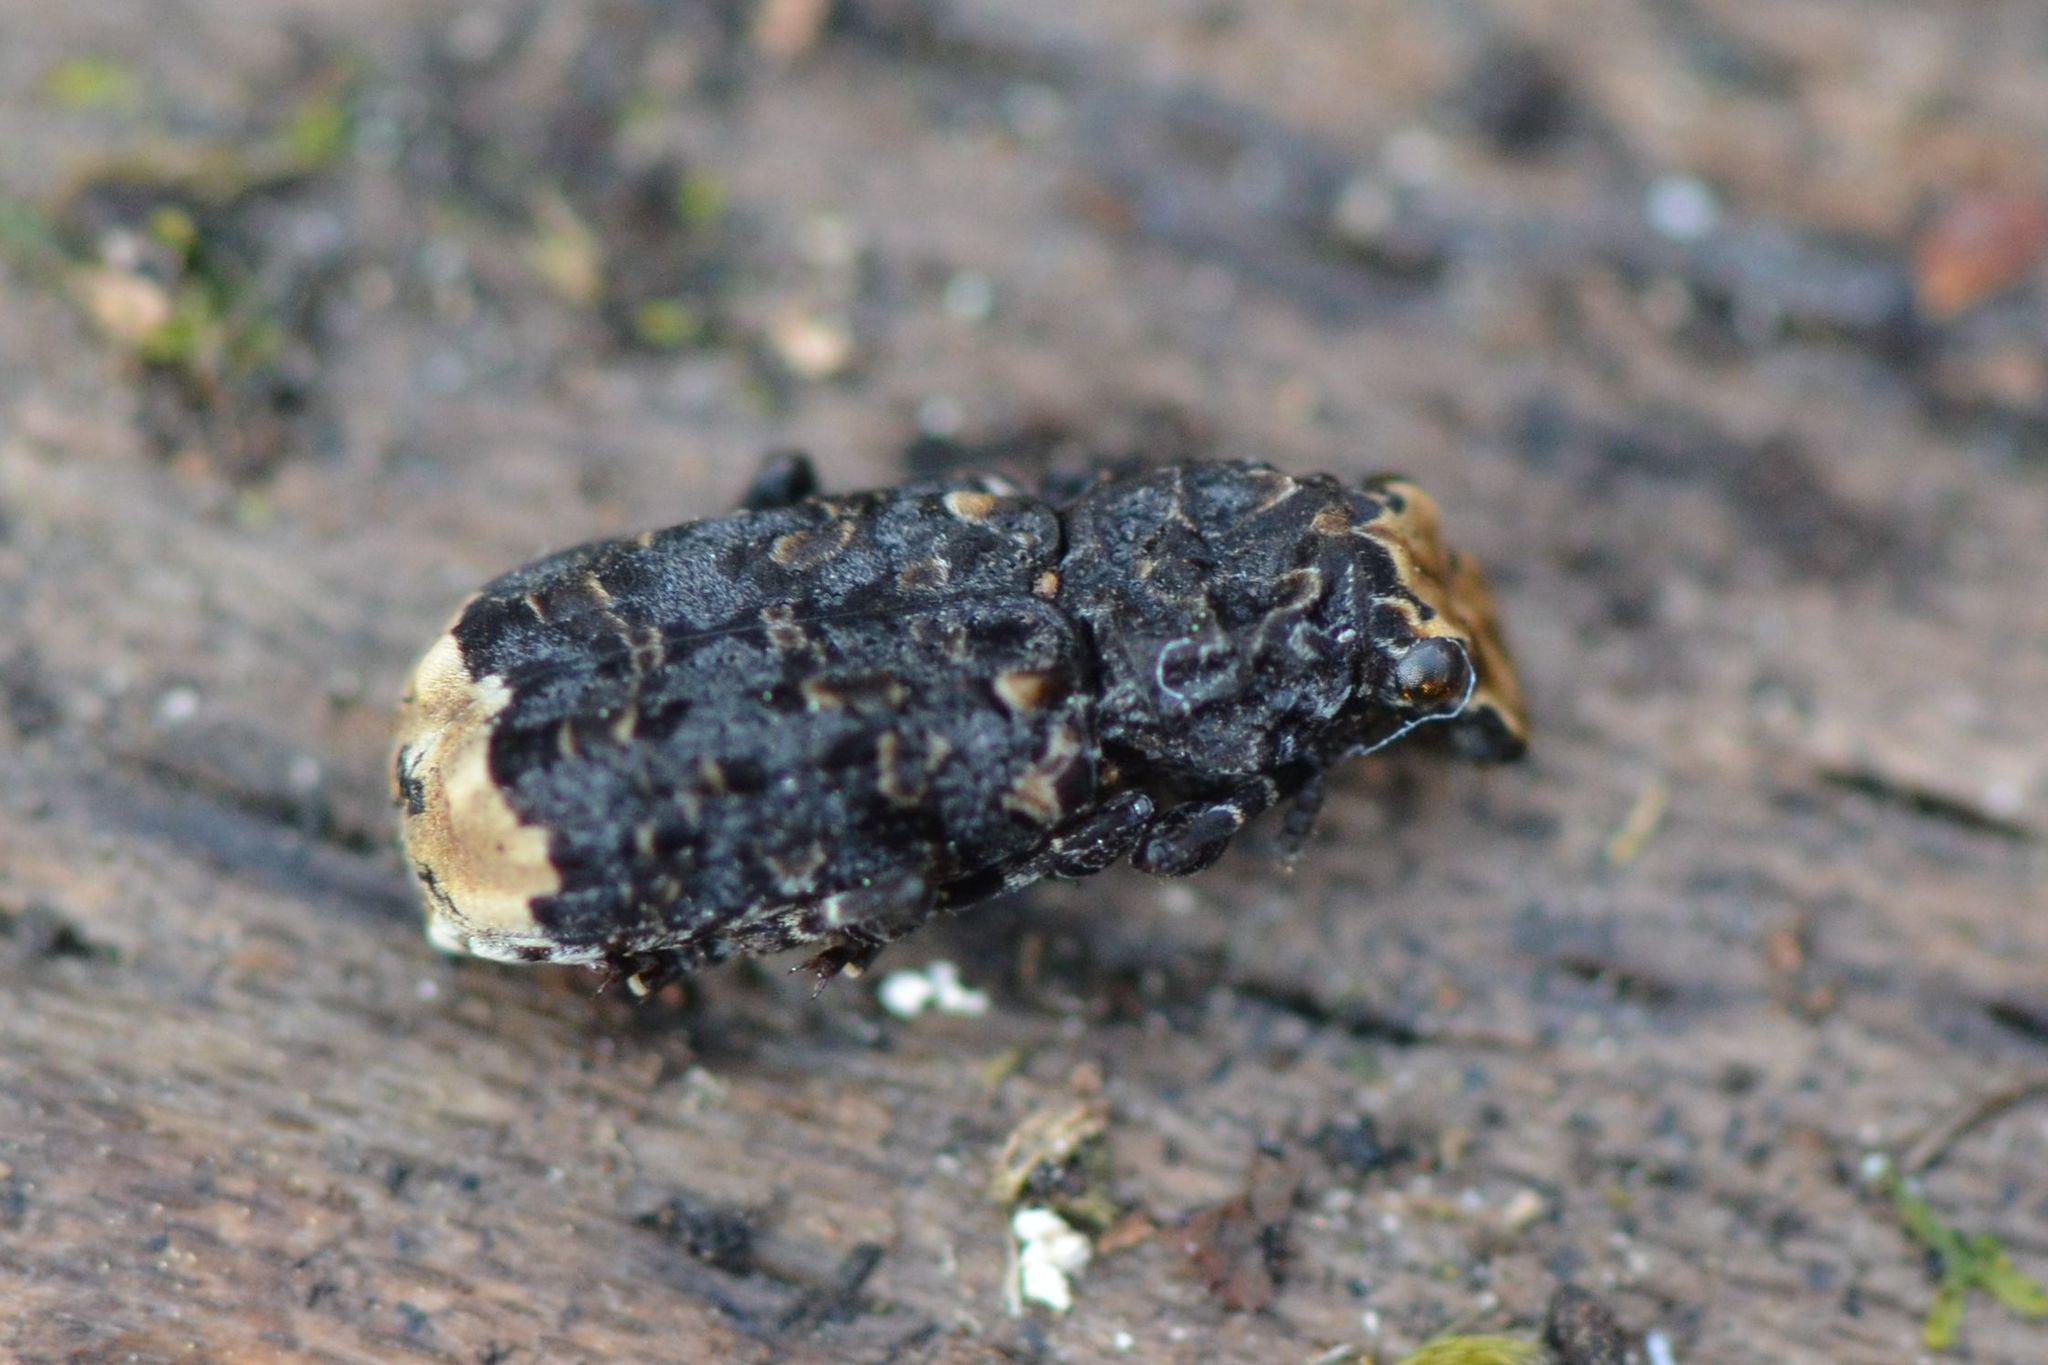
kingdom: Animalia
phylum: Arthropoda
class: Insecta
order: Coleoptera
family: Anthribidae
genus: Platyrhinus
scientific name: Platyrhinus resinosus
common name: Cramp-ball fungus weevil
